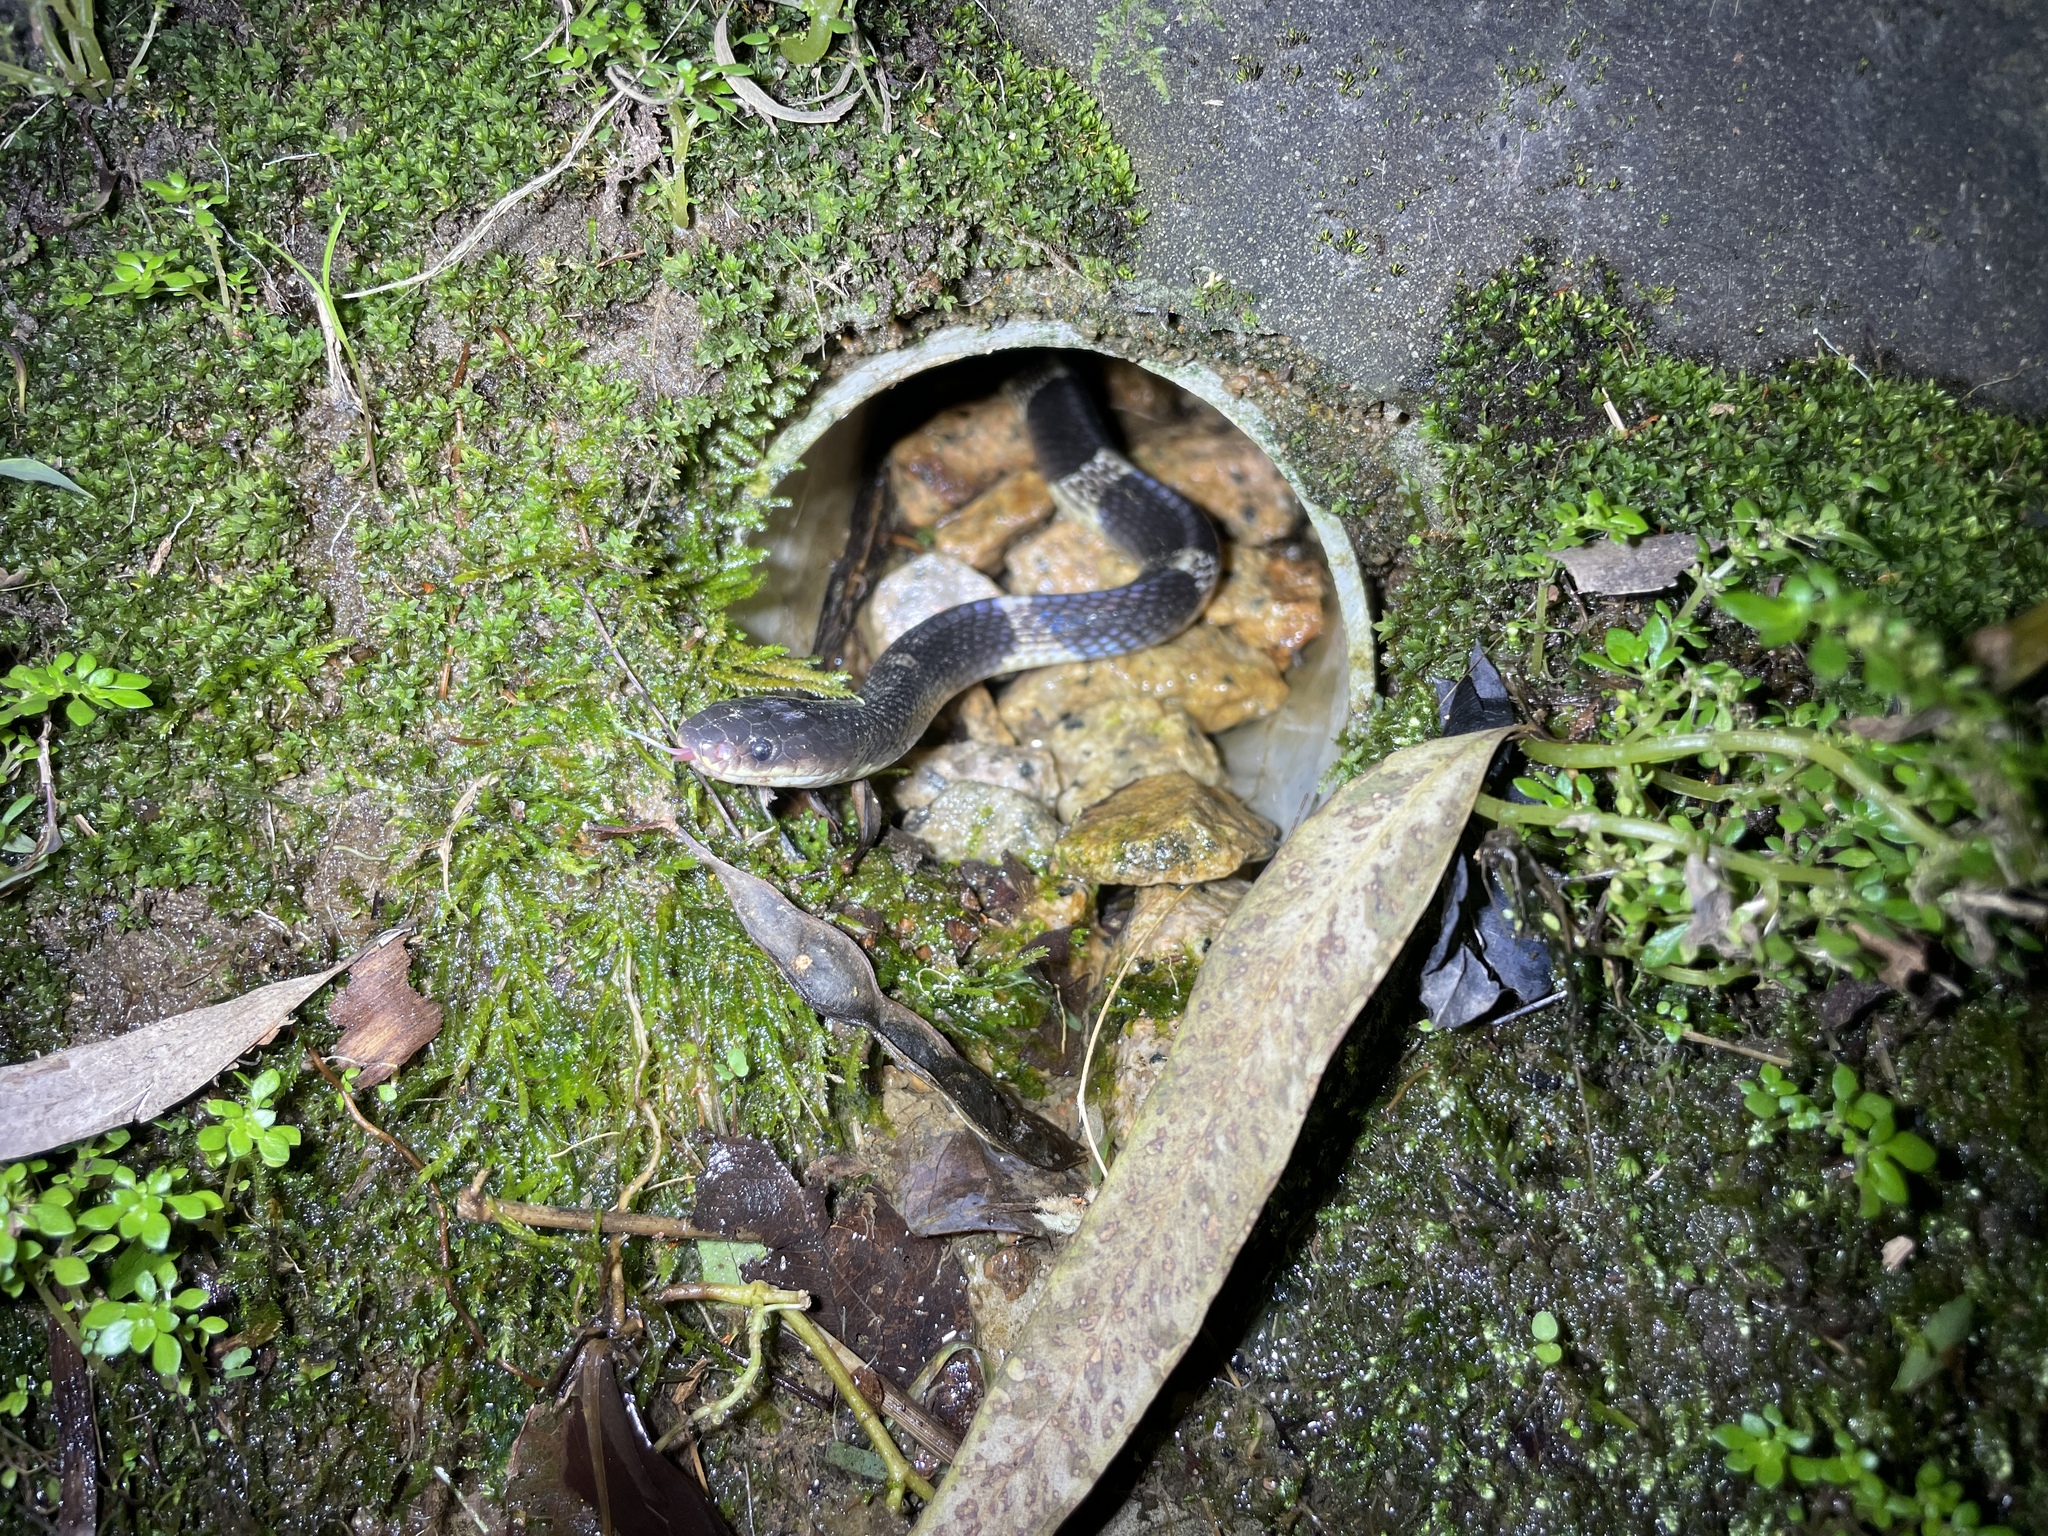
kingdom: Animalia
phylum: Chordata
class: Squamata
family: Elapidae
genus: Bungarus
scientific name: Bungarus multicinctus
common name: Many-banded krait
